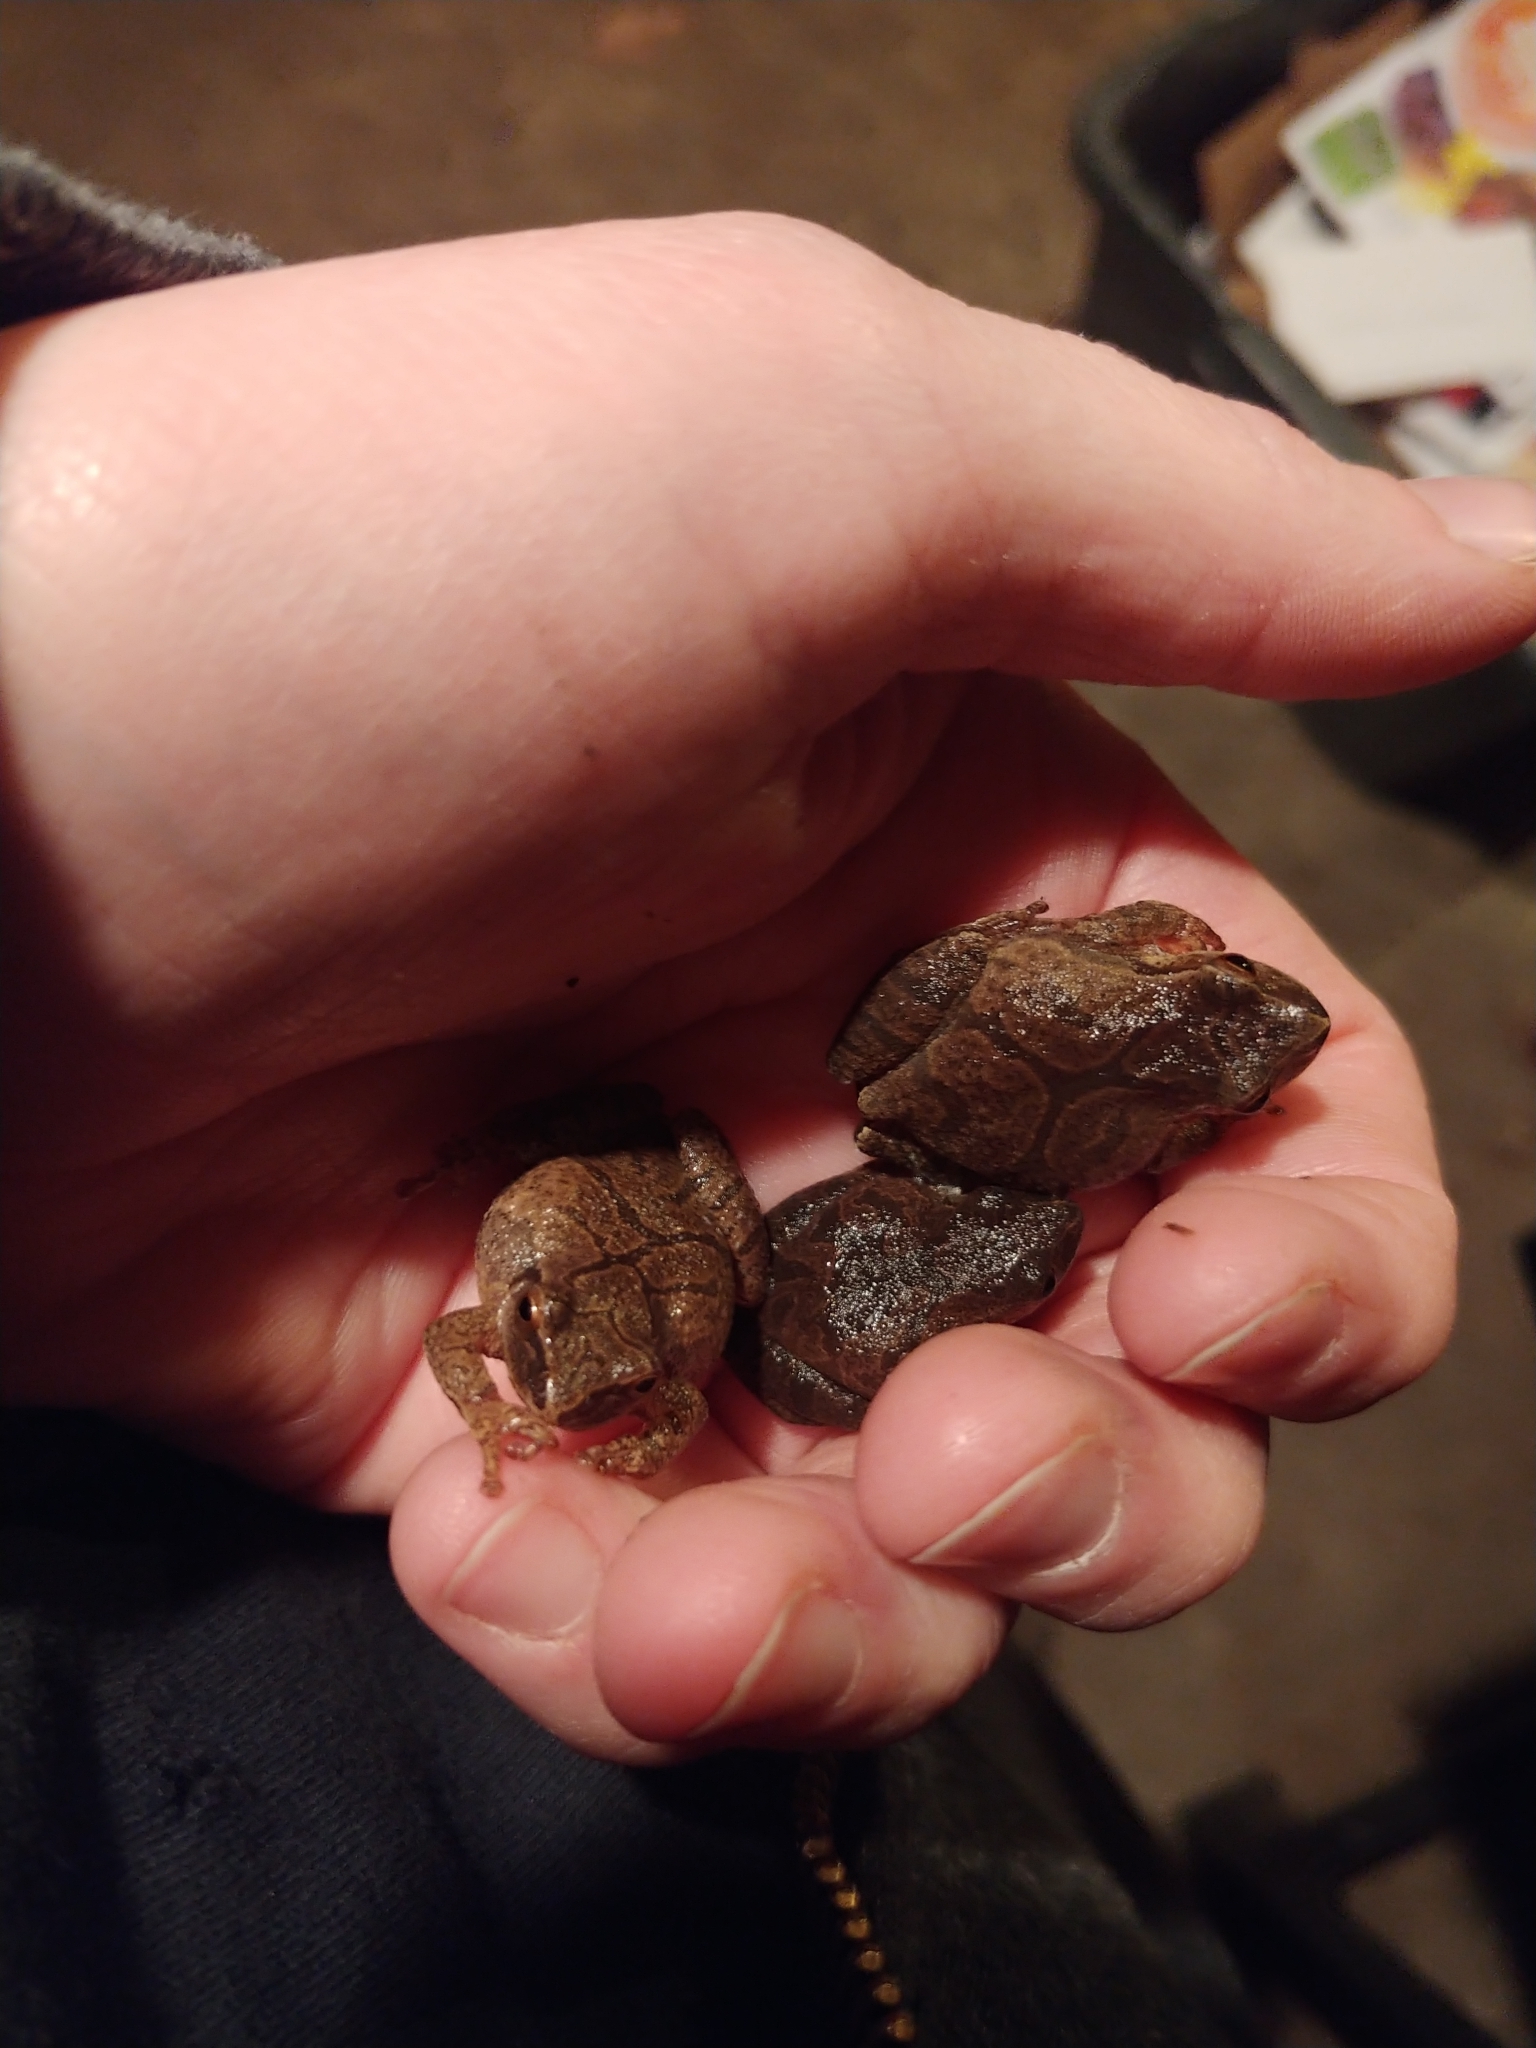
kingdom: Animalia
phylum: Chordata
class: Amphibia
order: Anura
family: Hylidae
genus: Pseudacris
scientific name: Pseudacris crucifer
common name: Spring peeper
